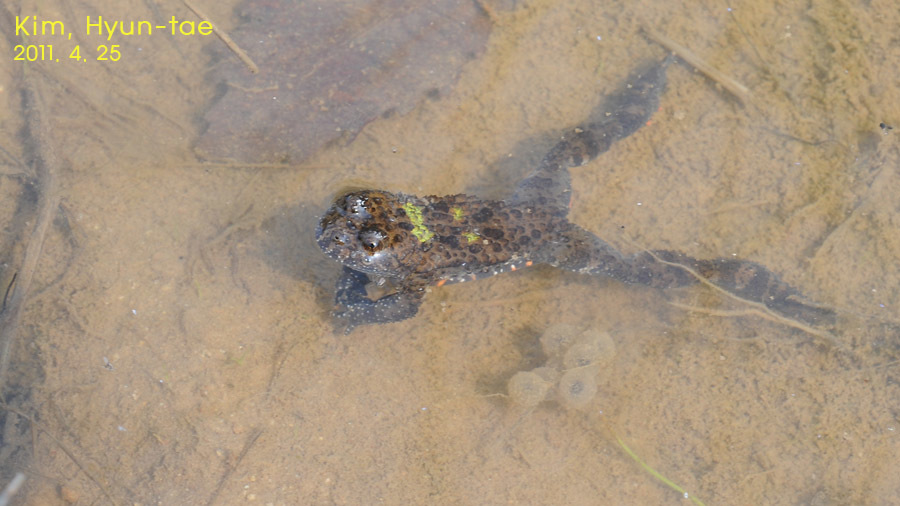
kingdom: Animalia
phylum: Chordata
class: Amphibia
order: Anura
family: Bombinatoridae
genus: Bombina
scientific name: Bombina orientalis
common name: Oriental firebelly toad
